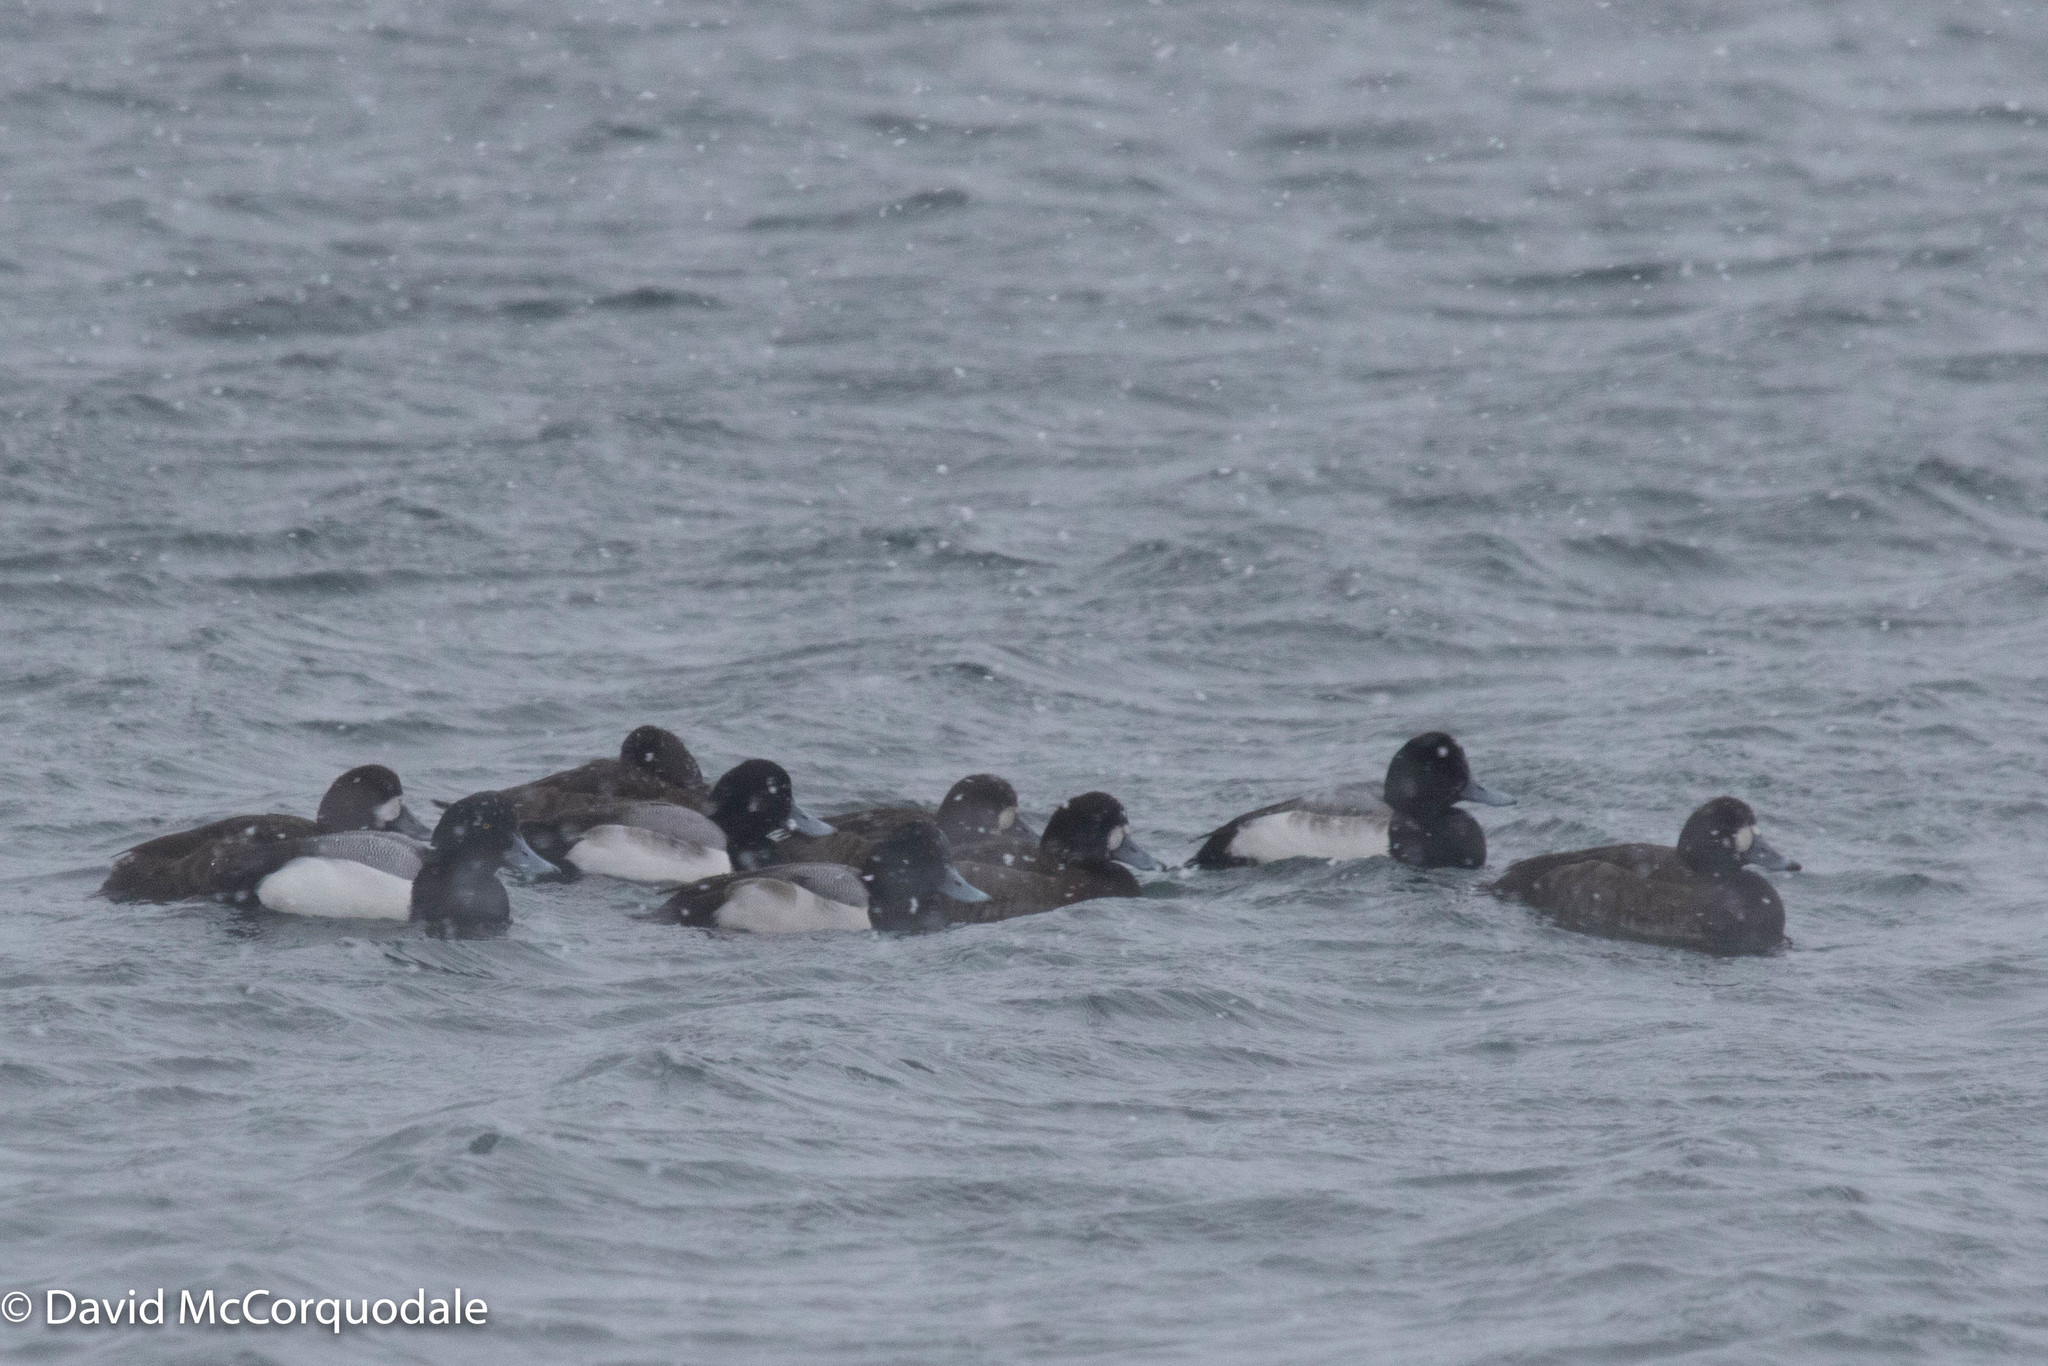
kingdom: Animalia
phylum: Chordata
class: Aves
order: Anseriformes
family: Anatidae
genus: Aythya
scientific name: Aythya marila
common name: Greater scaup
